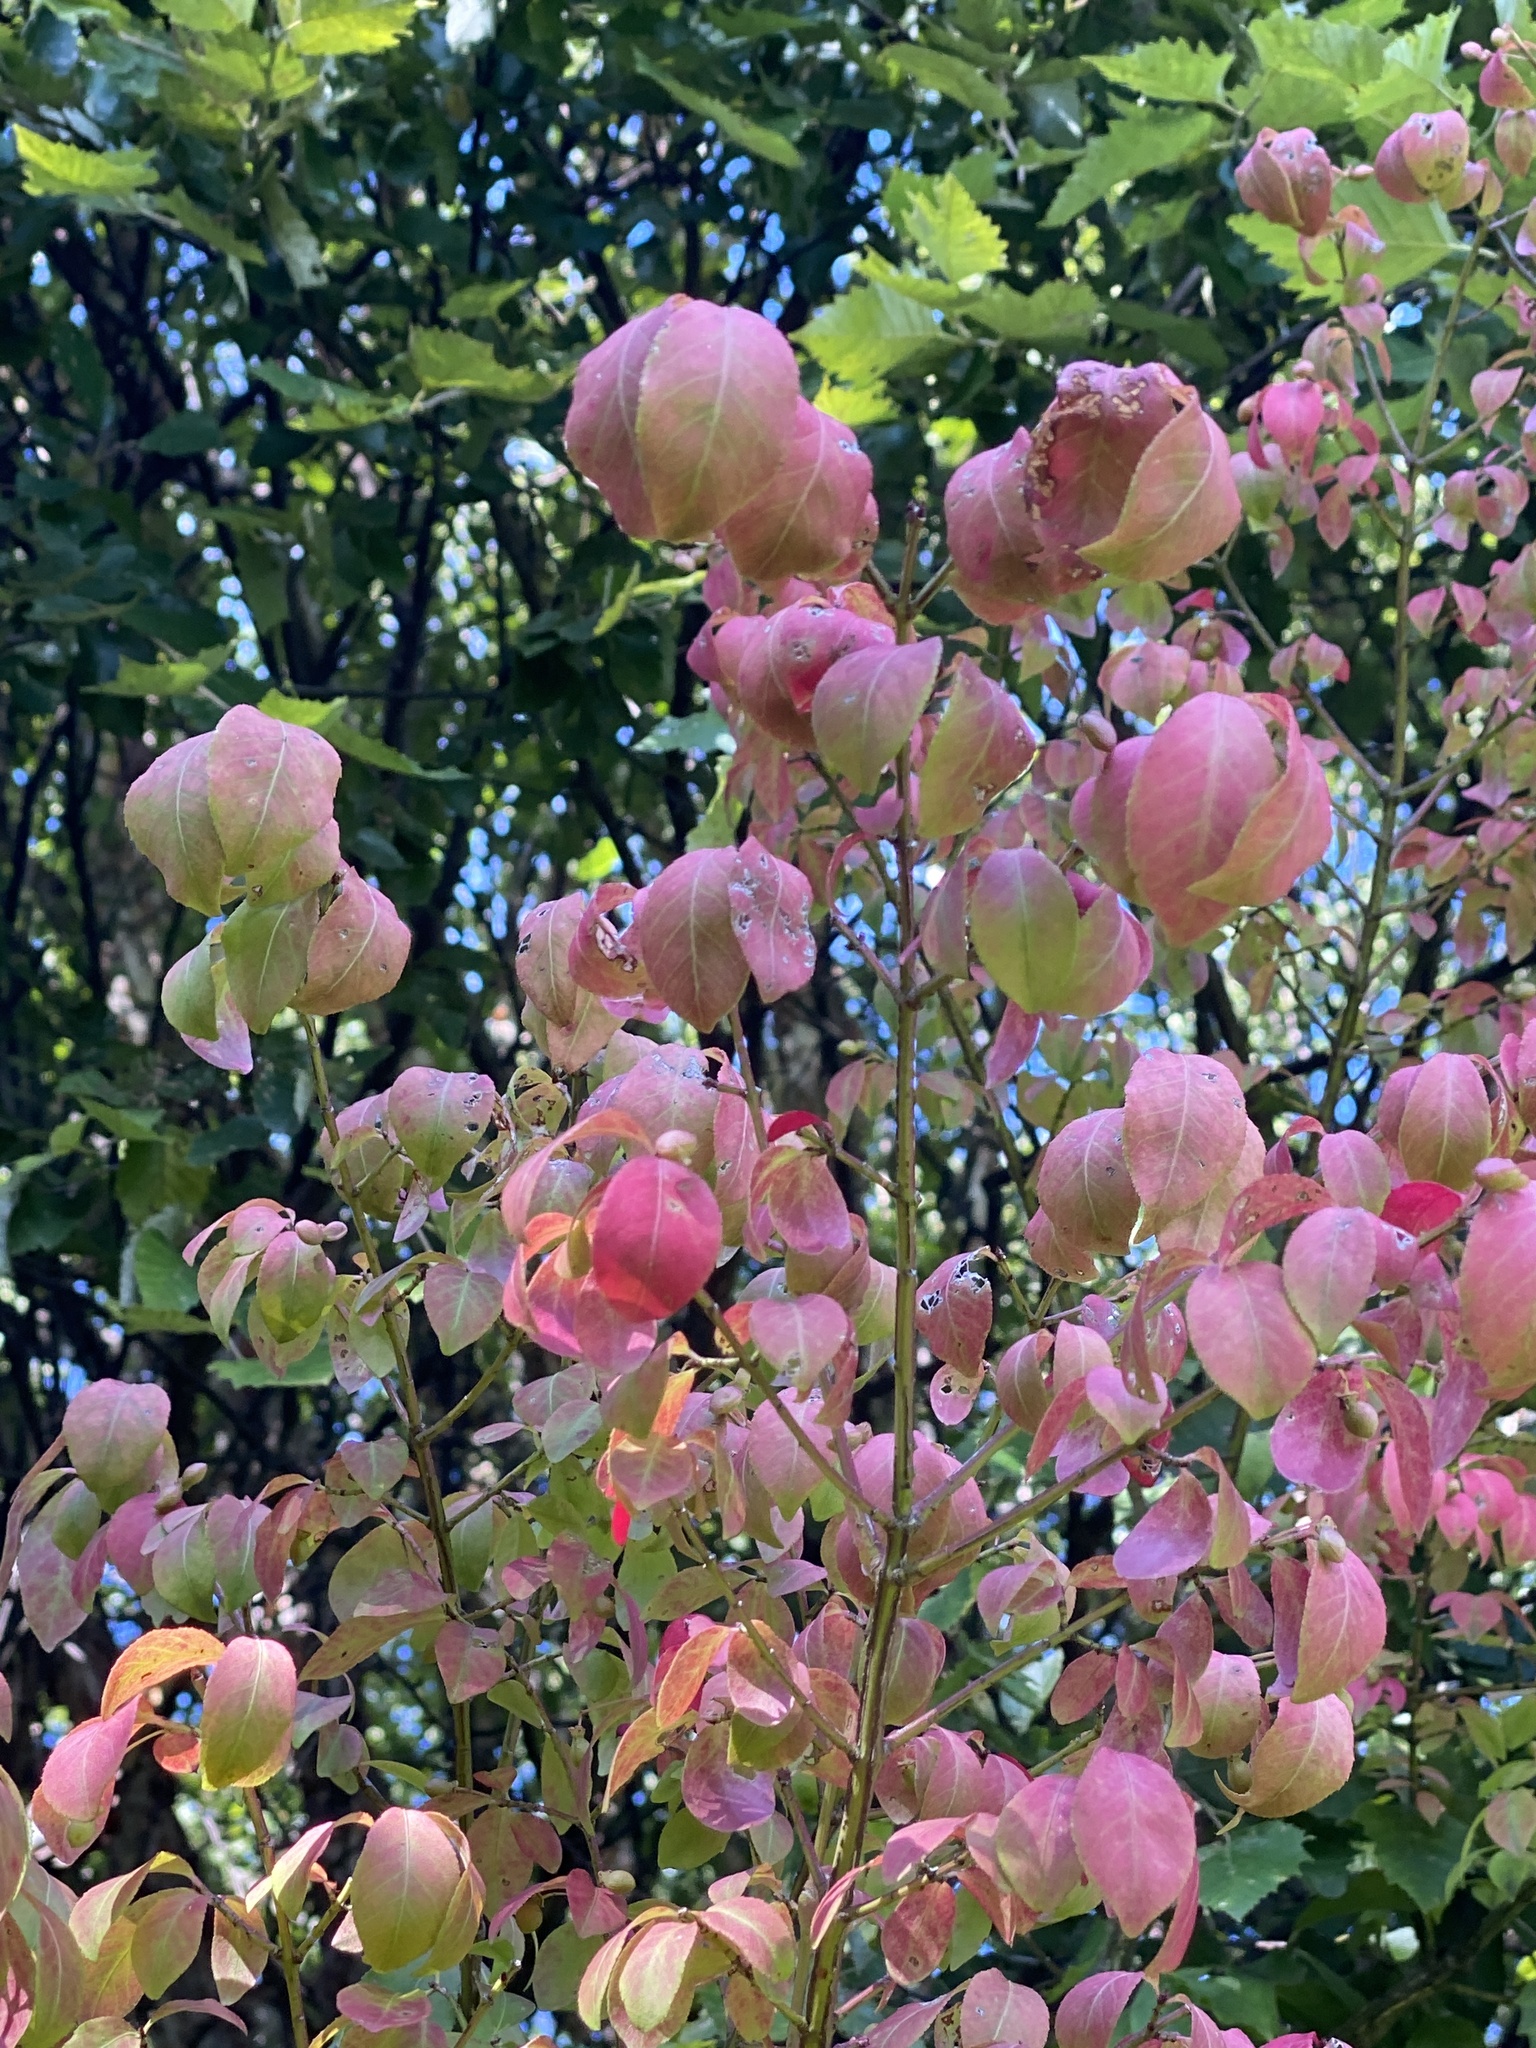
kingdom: Plantae
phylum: Tracheophyta
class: Magnoliopsida
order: Celastrales
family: Celastraceae
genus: Euonymus
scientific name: Euonymus alatus
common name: Winged euonymus
